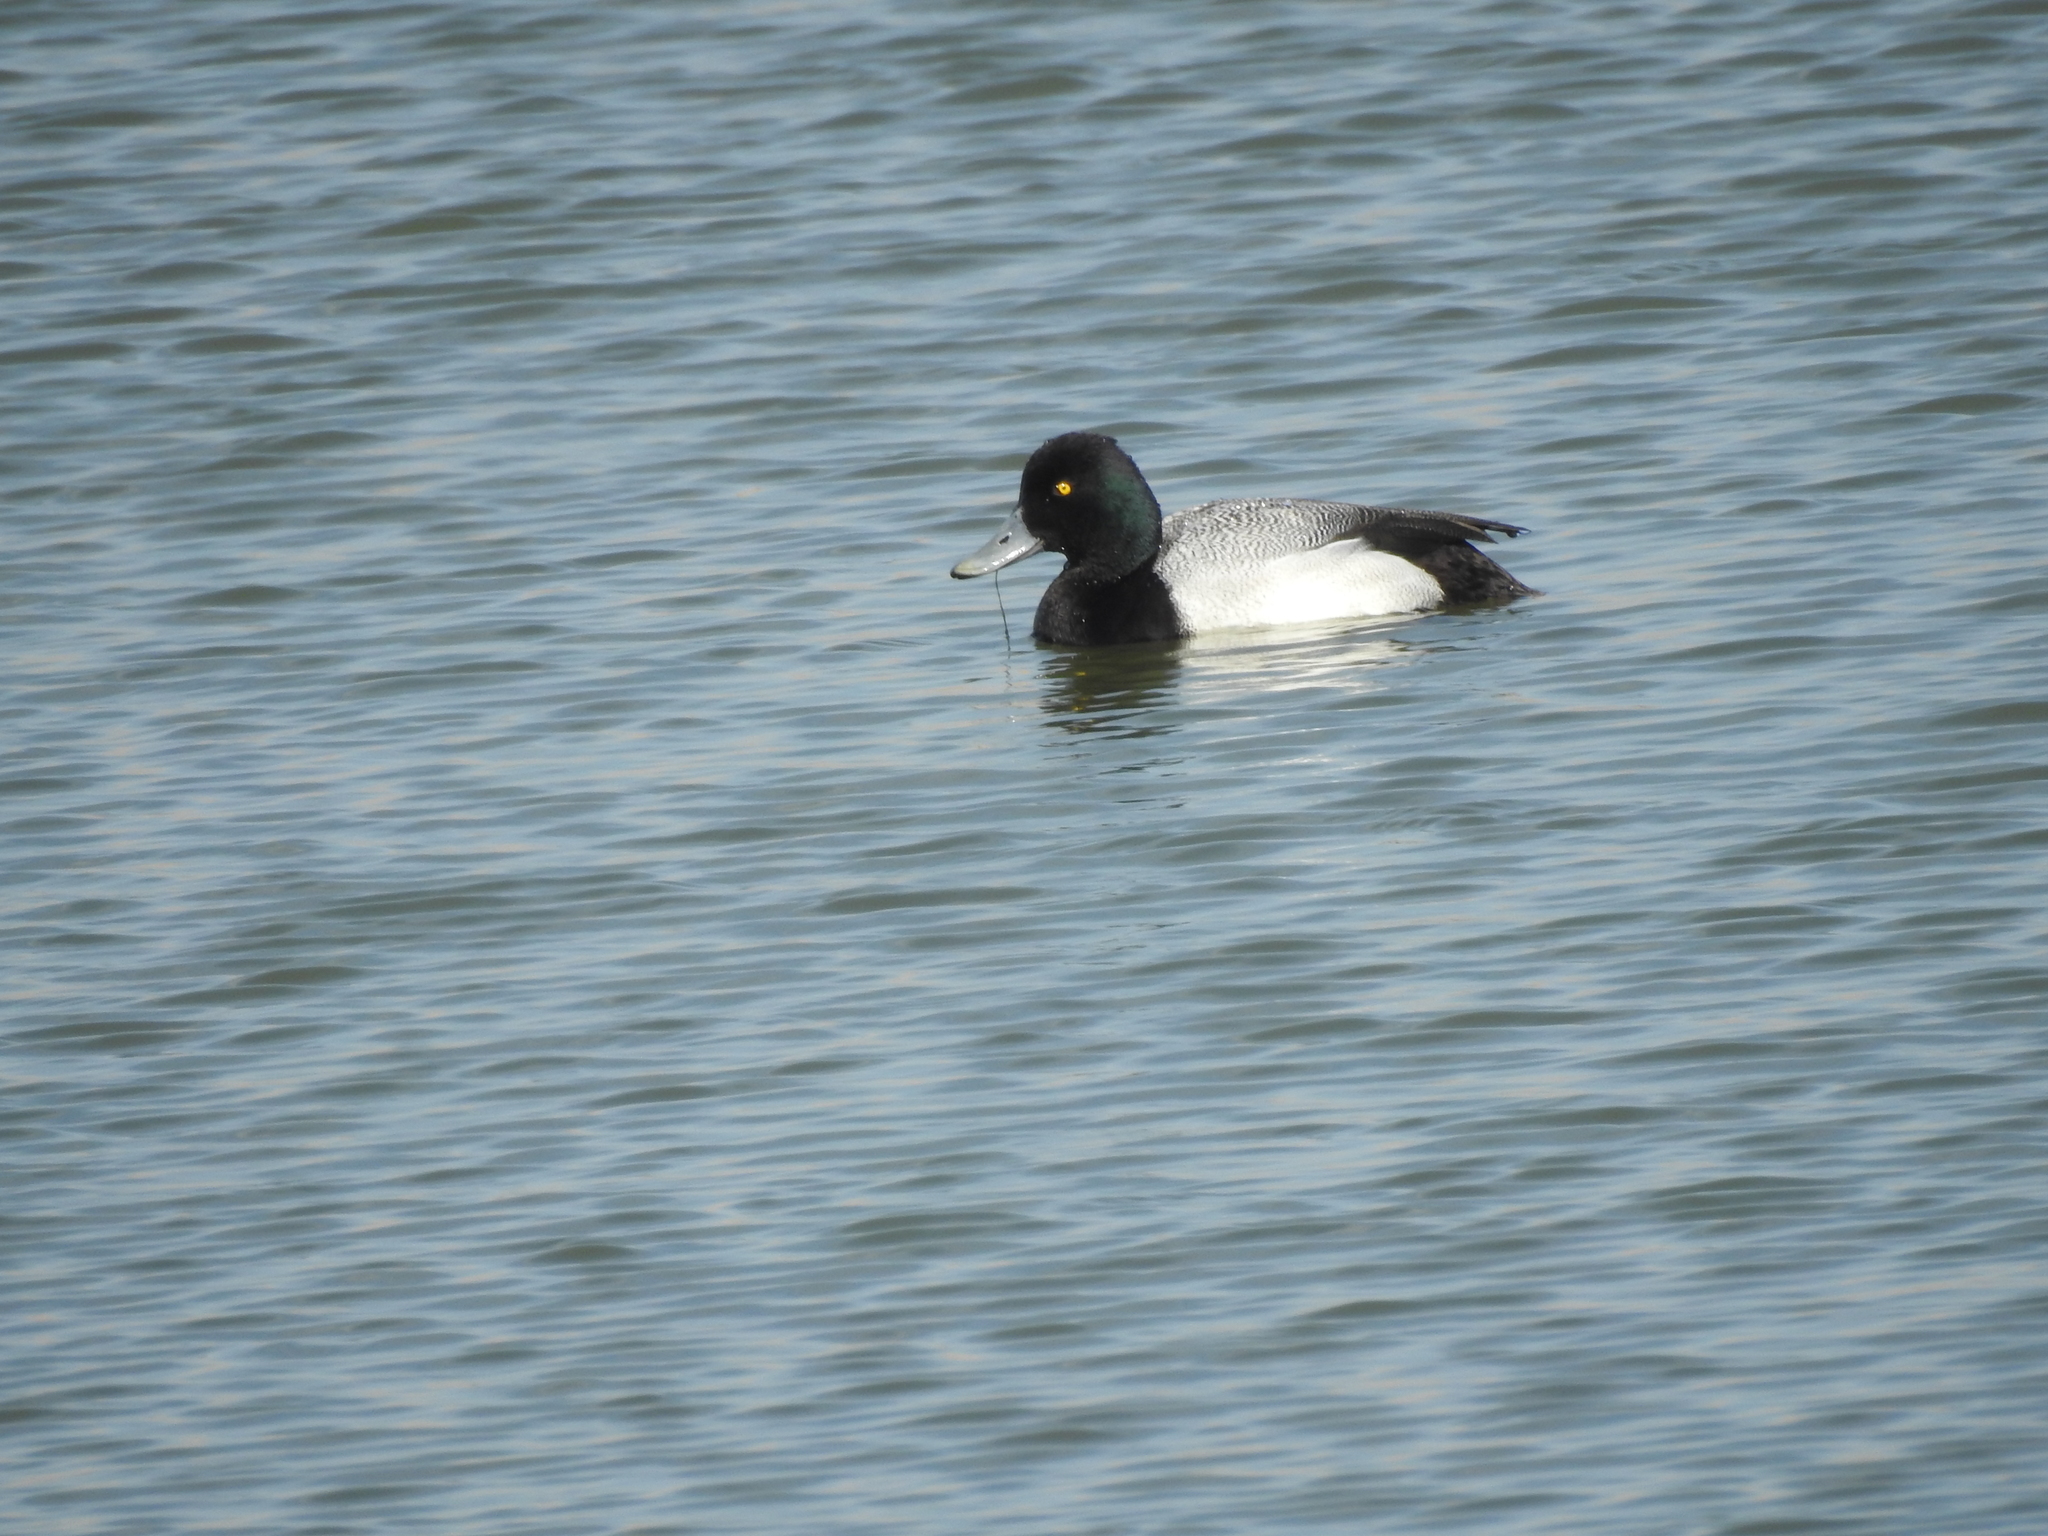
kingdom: Animalia
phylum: Chordata
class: Aves
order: Anseriformes
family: Anatidae
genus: Aythya
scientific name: Aythya affinis
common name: Lesser scaup
